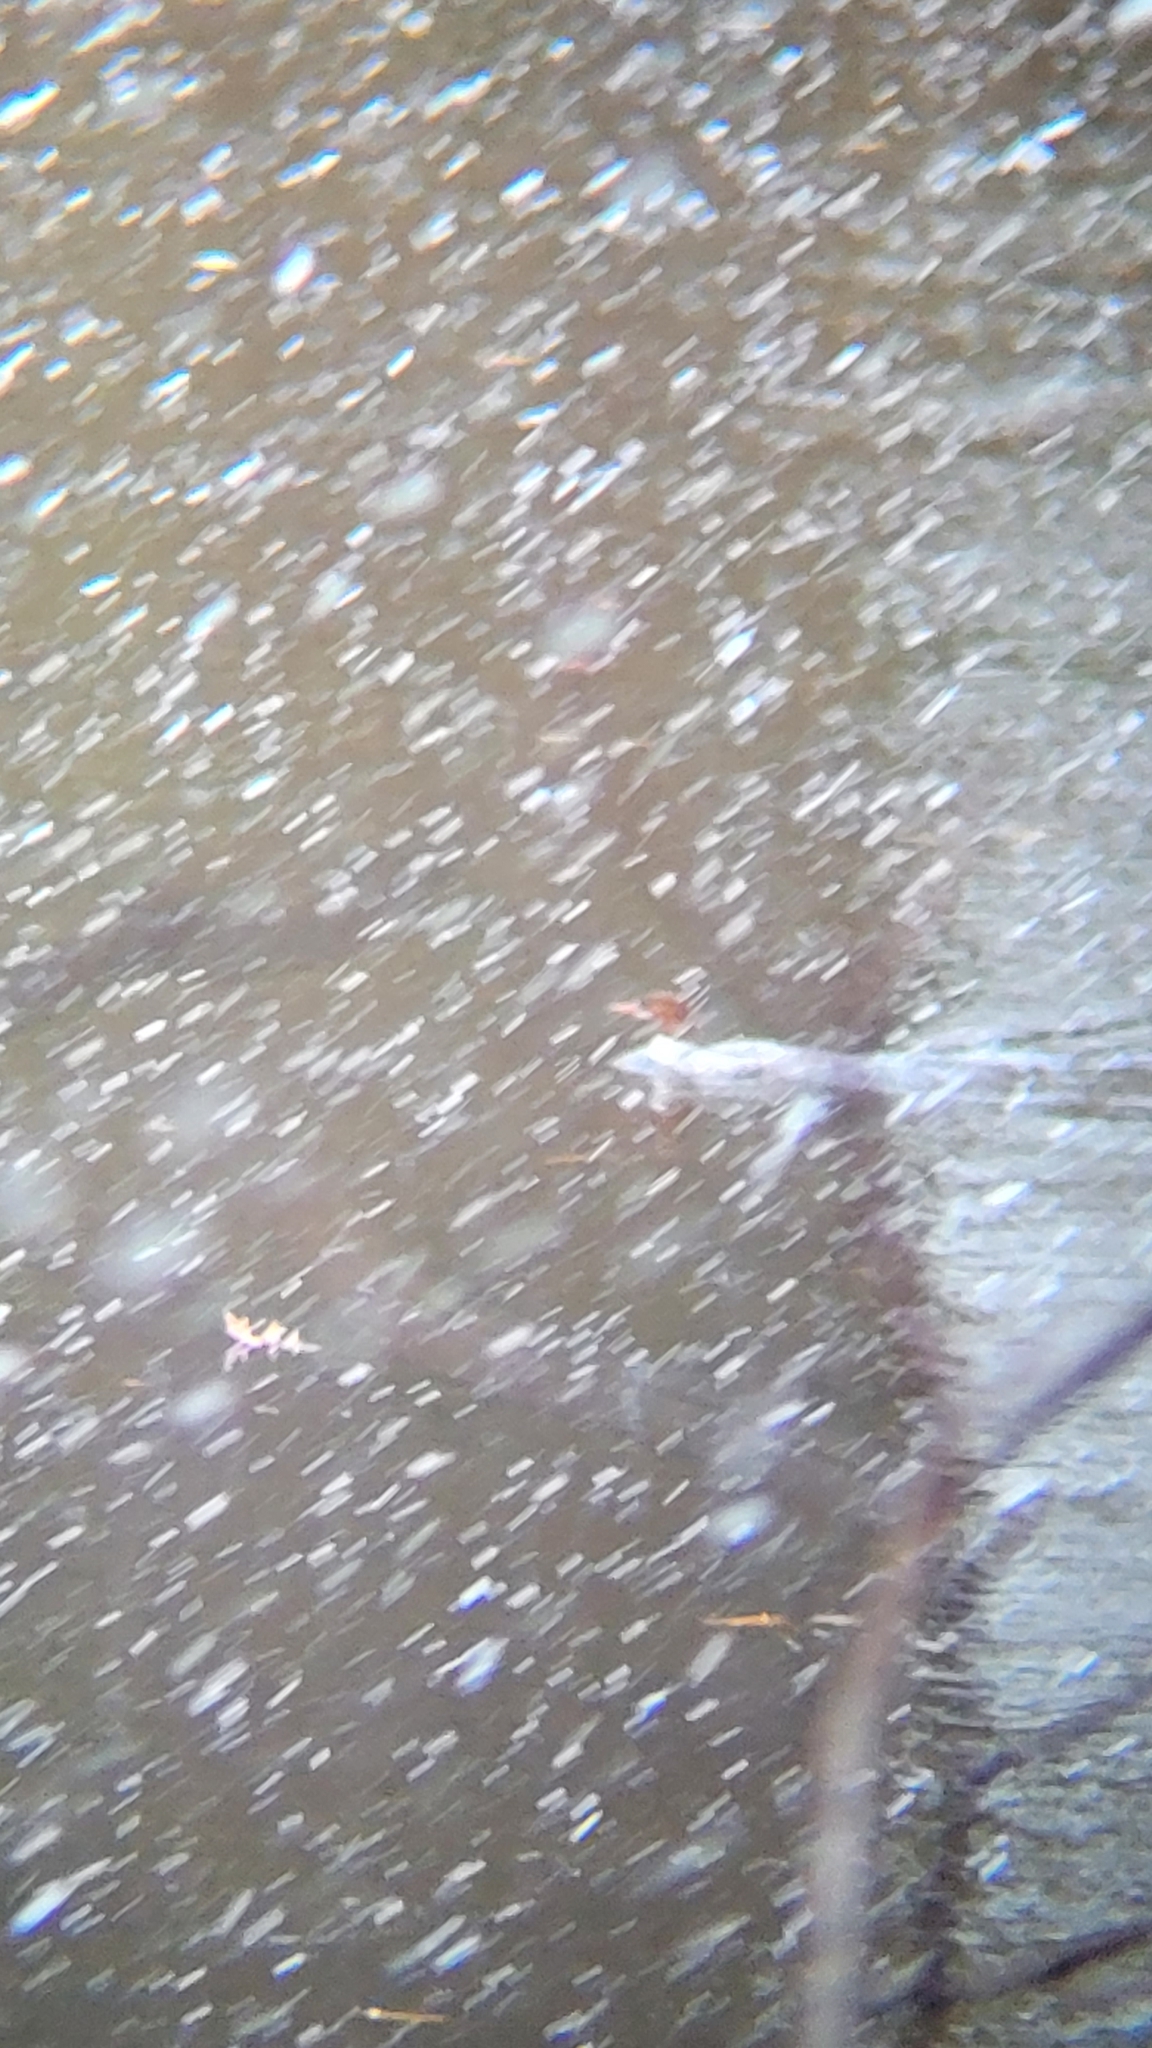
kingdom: Animalia
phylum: Chordata
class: Aves
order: Anseriformes
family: Anatidae
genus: Mergus
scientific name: Mergus merganser
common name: Common merganser
